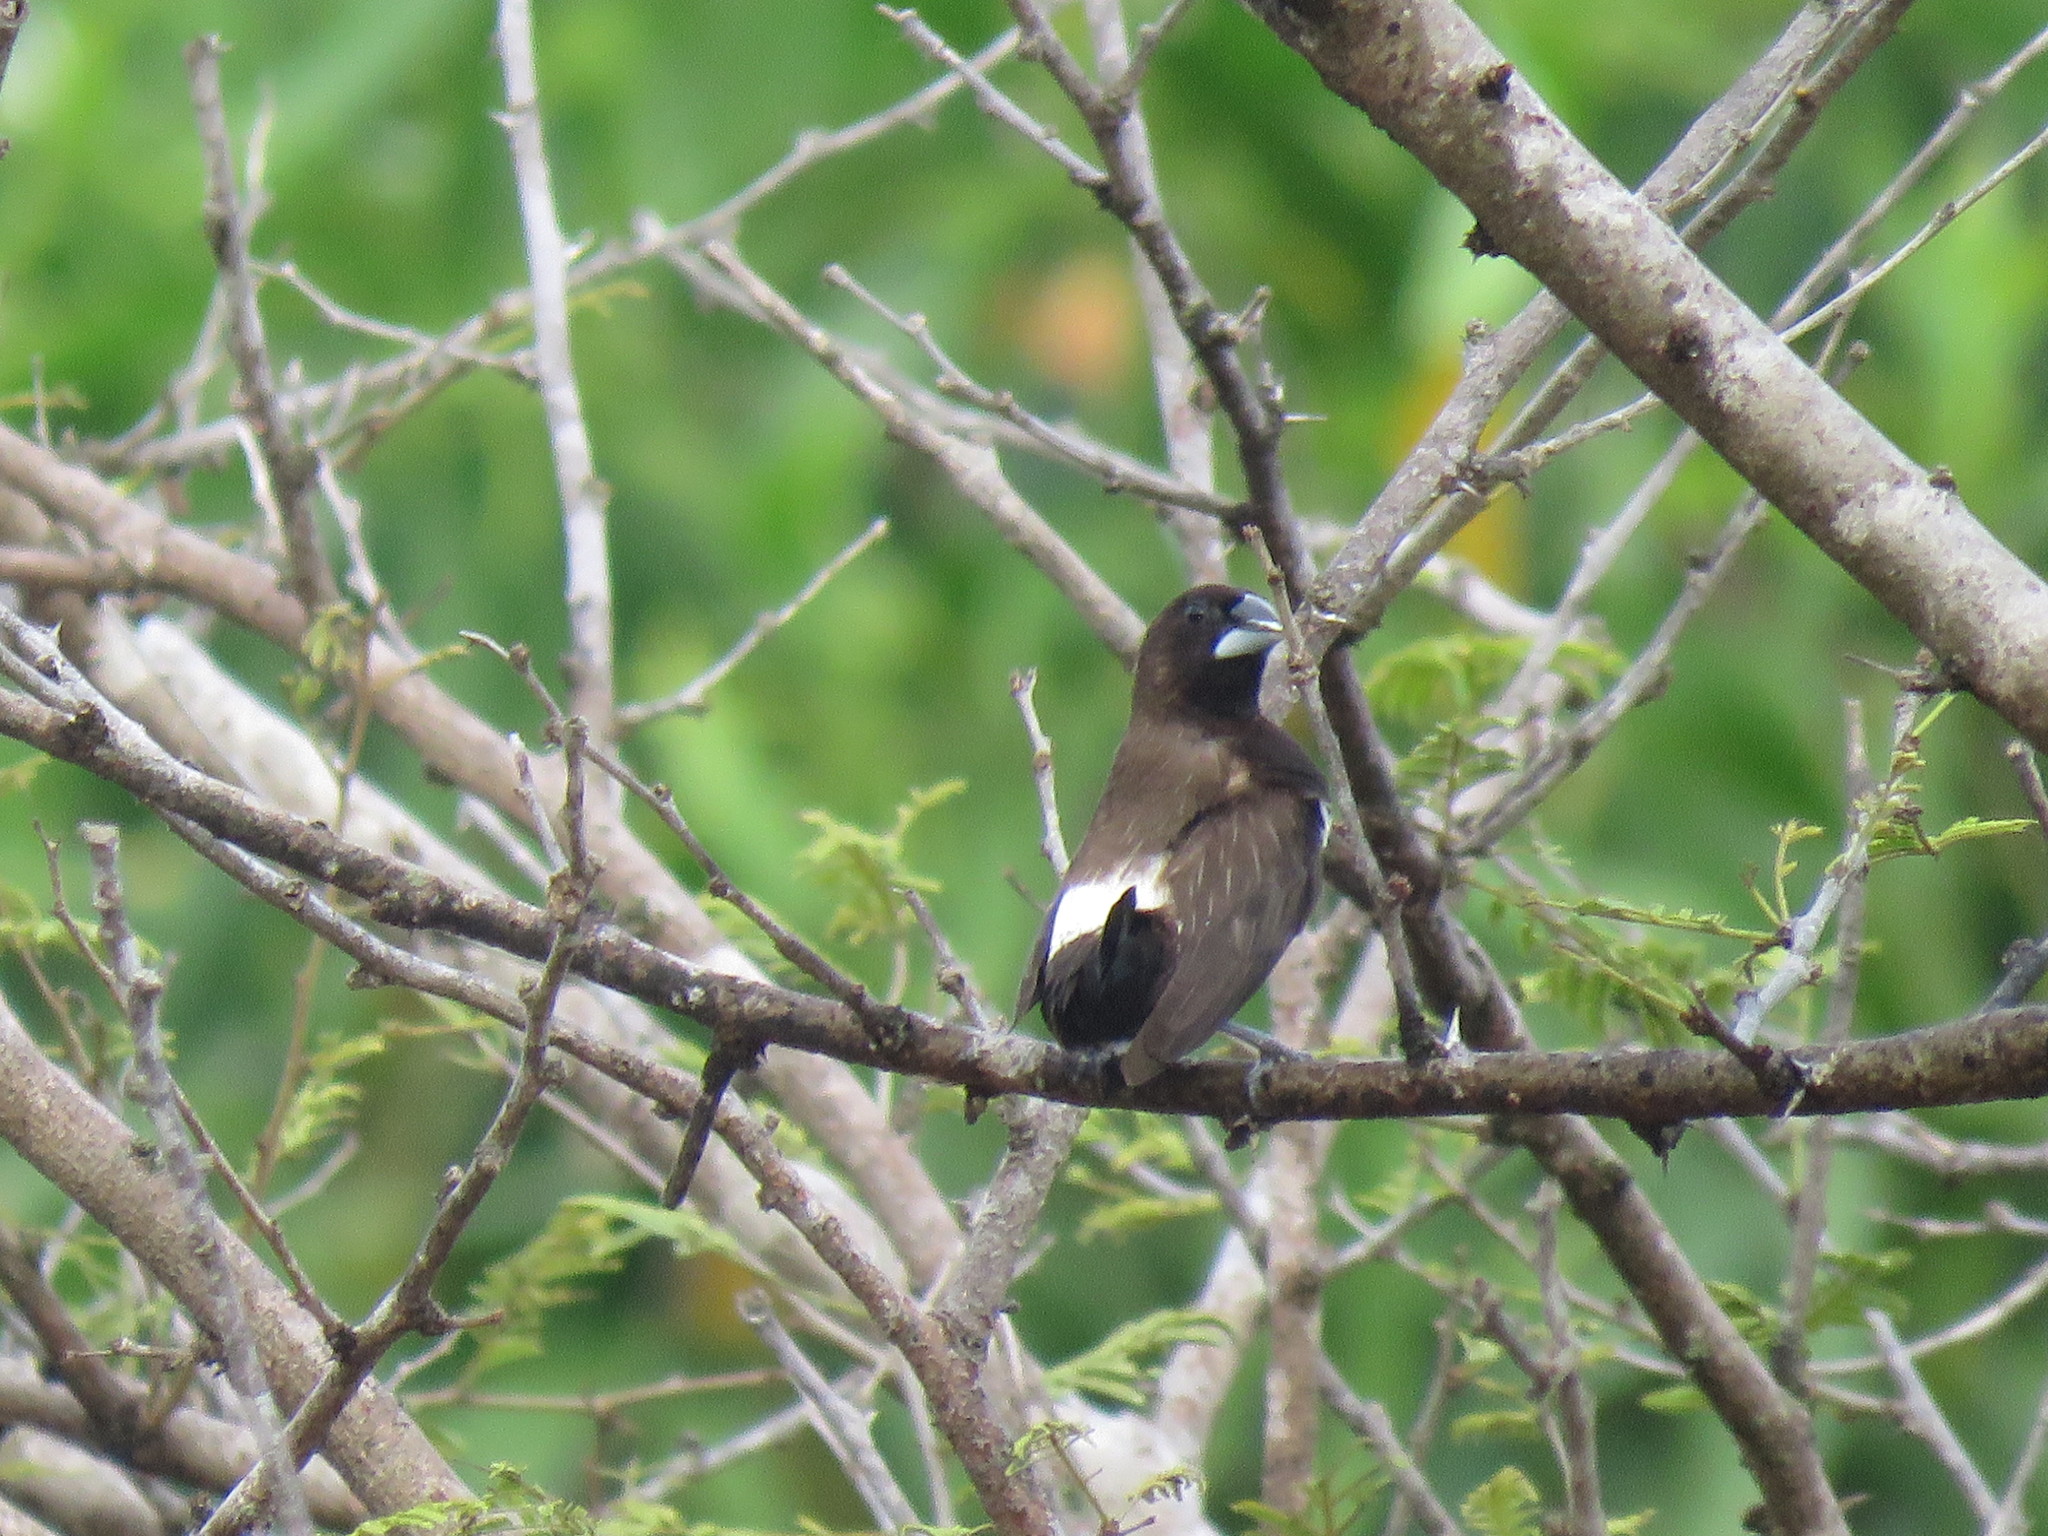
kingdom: Animalia
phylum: Chordata
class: Aves
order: Passeriformes
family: Estrildidae
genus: Lonchura
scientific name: Lonchura striata
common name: White-rumped munia
